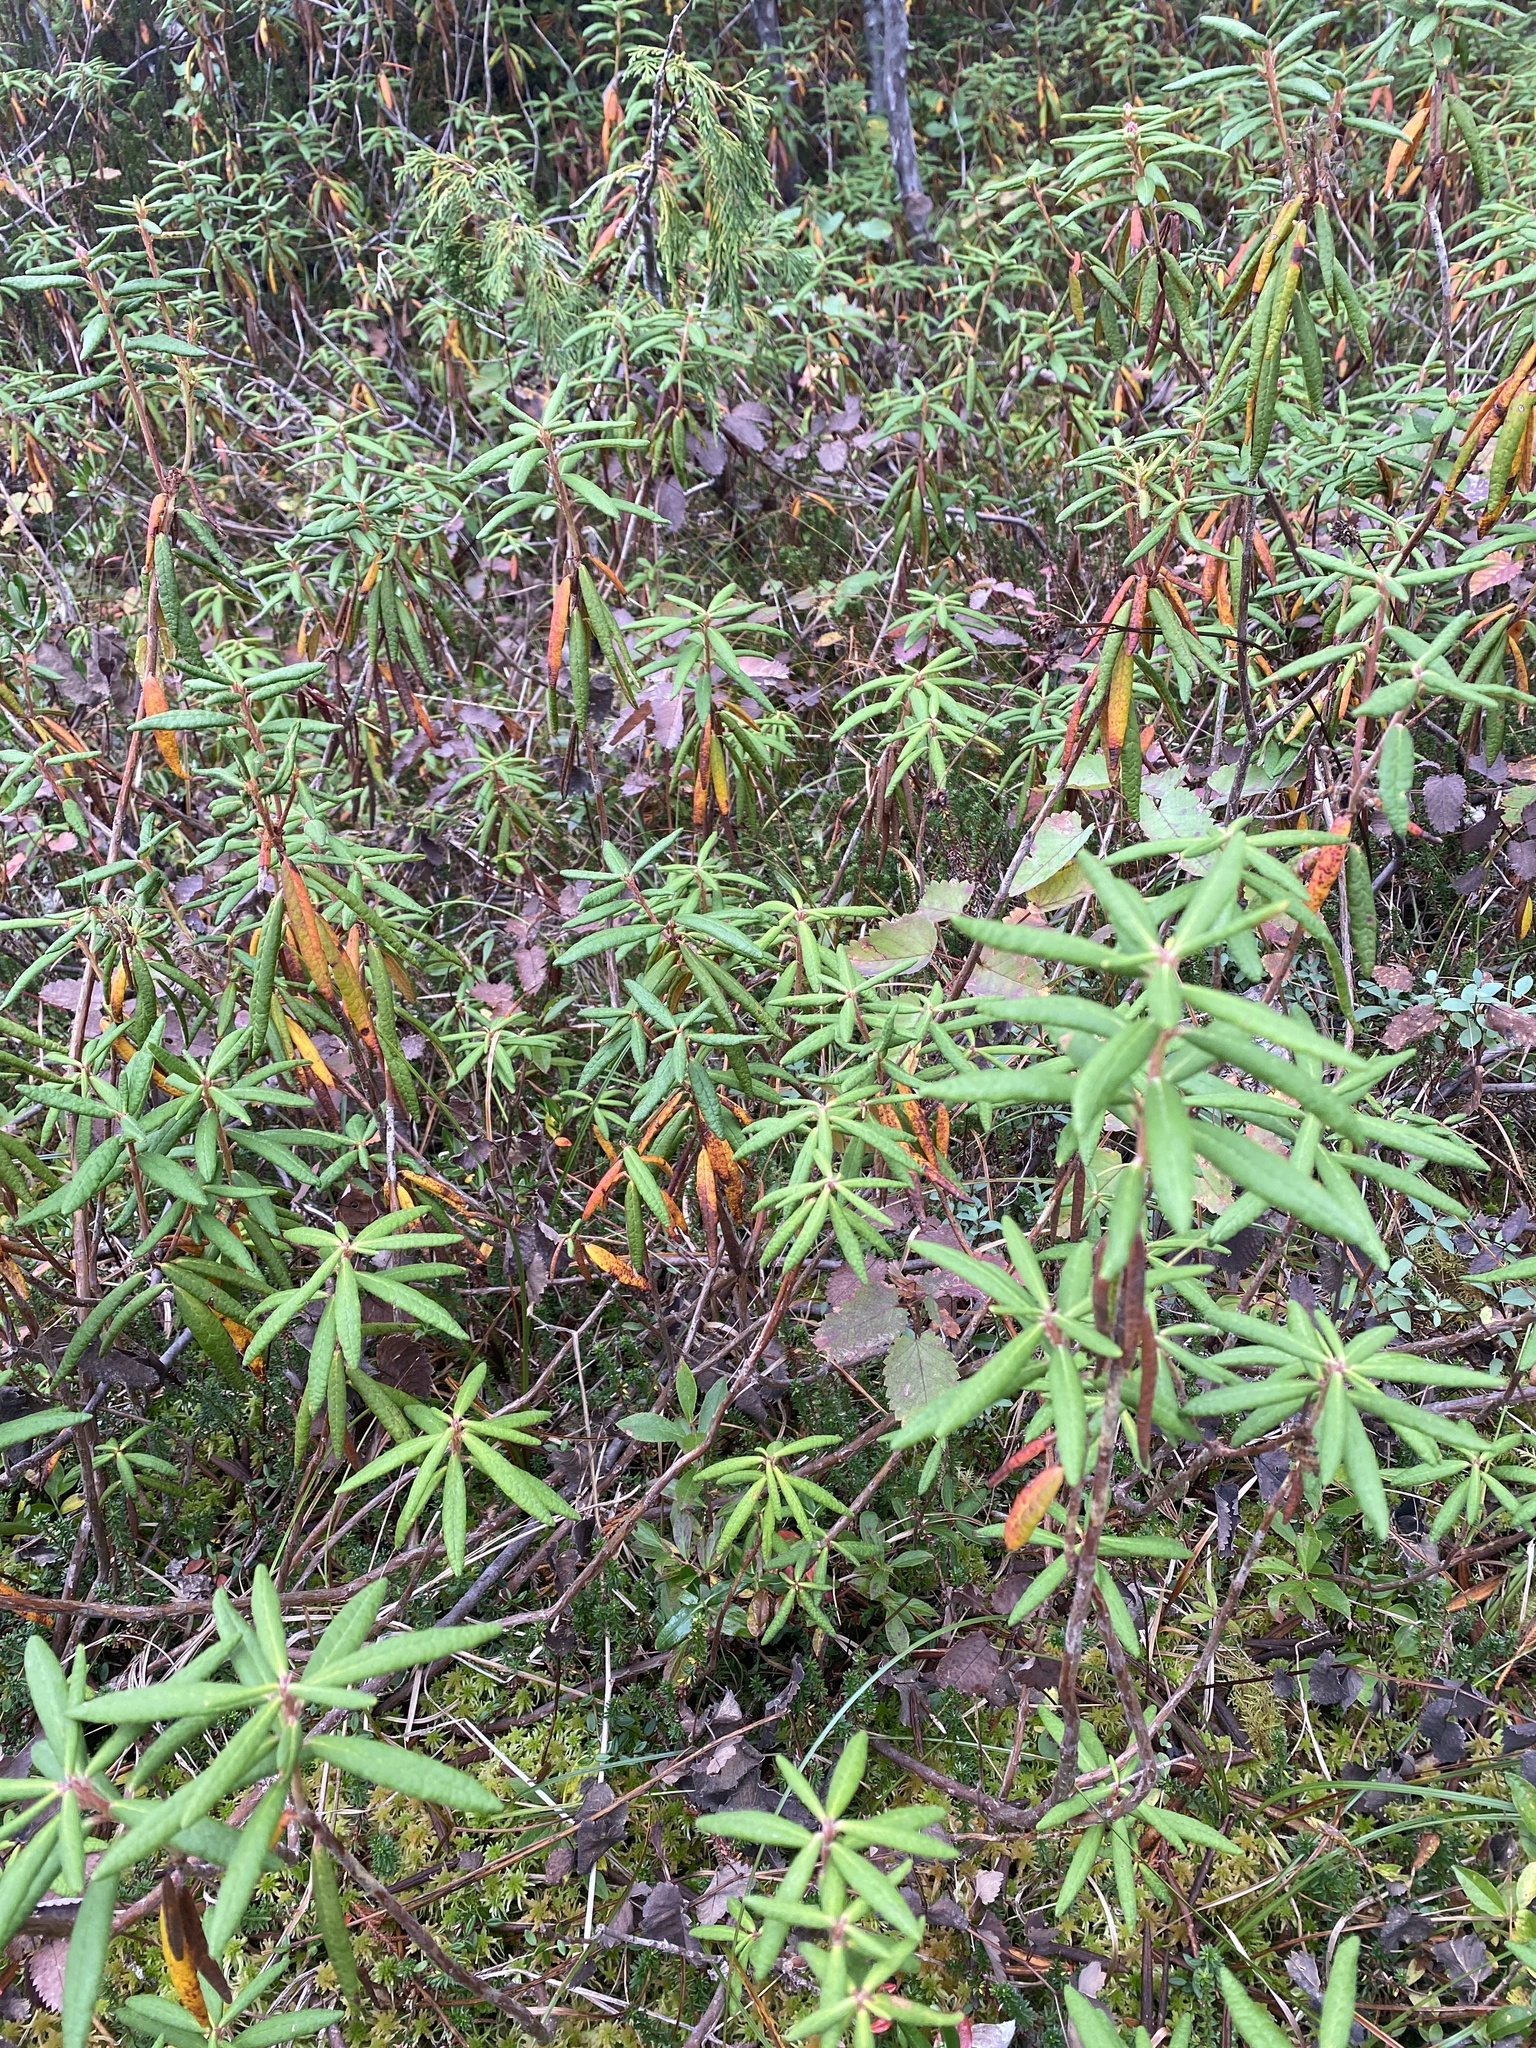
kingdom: Plantae
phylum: Tracheophyta
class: Magnoliopsida
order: Ericales
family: Ericaceae
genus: Rhododendron
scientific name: Rhododendron groenlandicum
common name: Bog labrador tea
